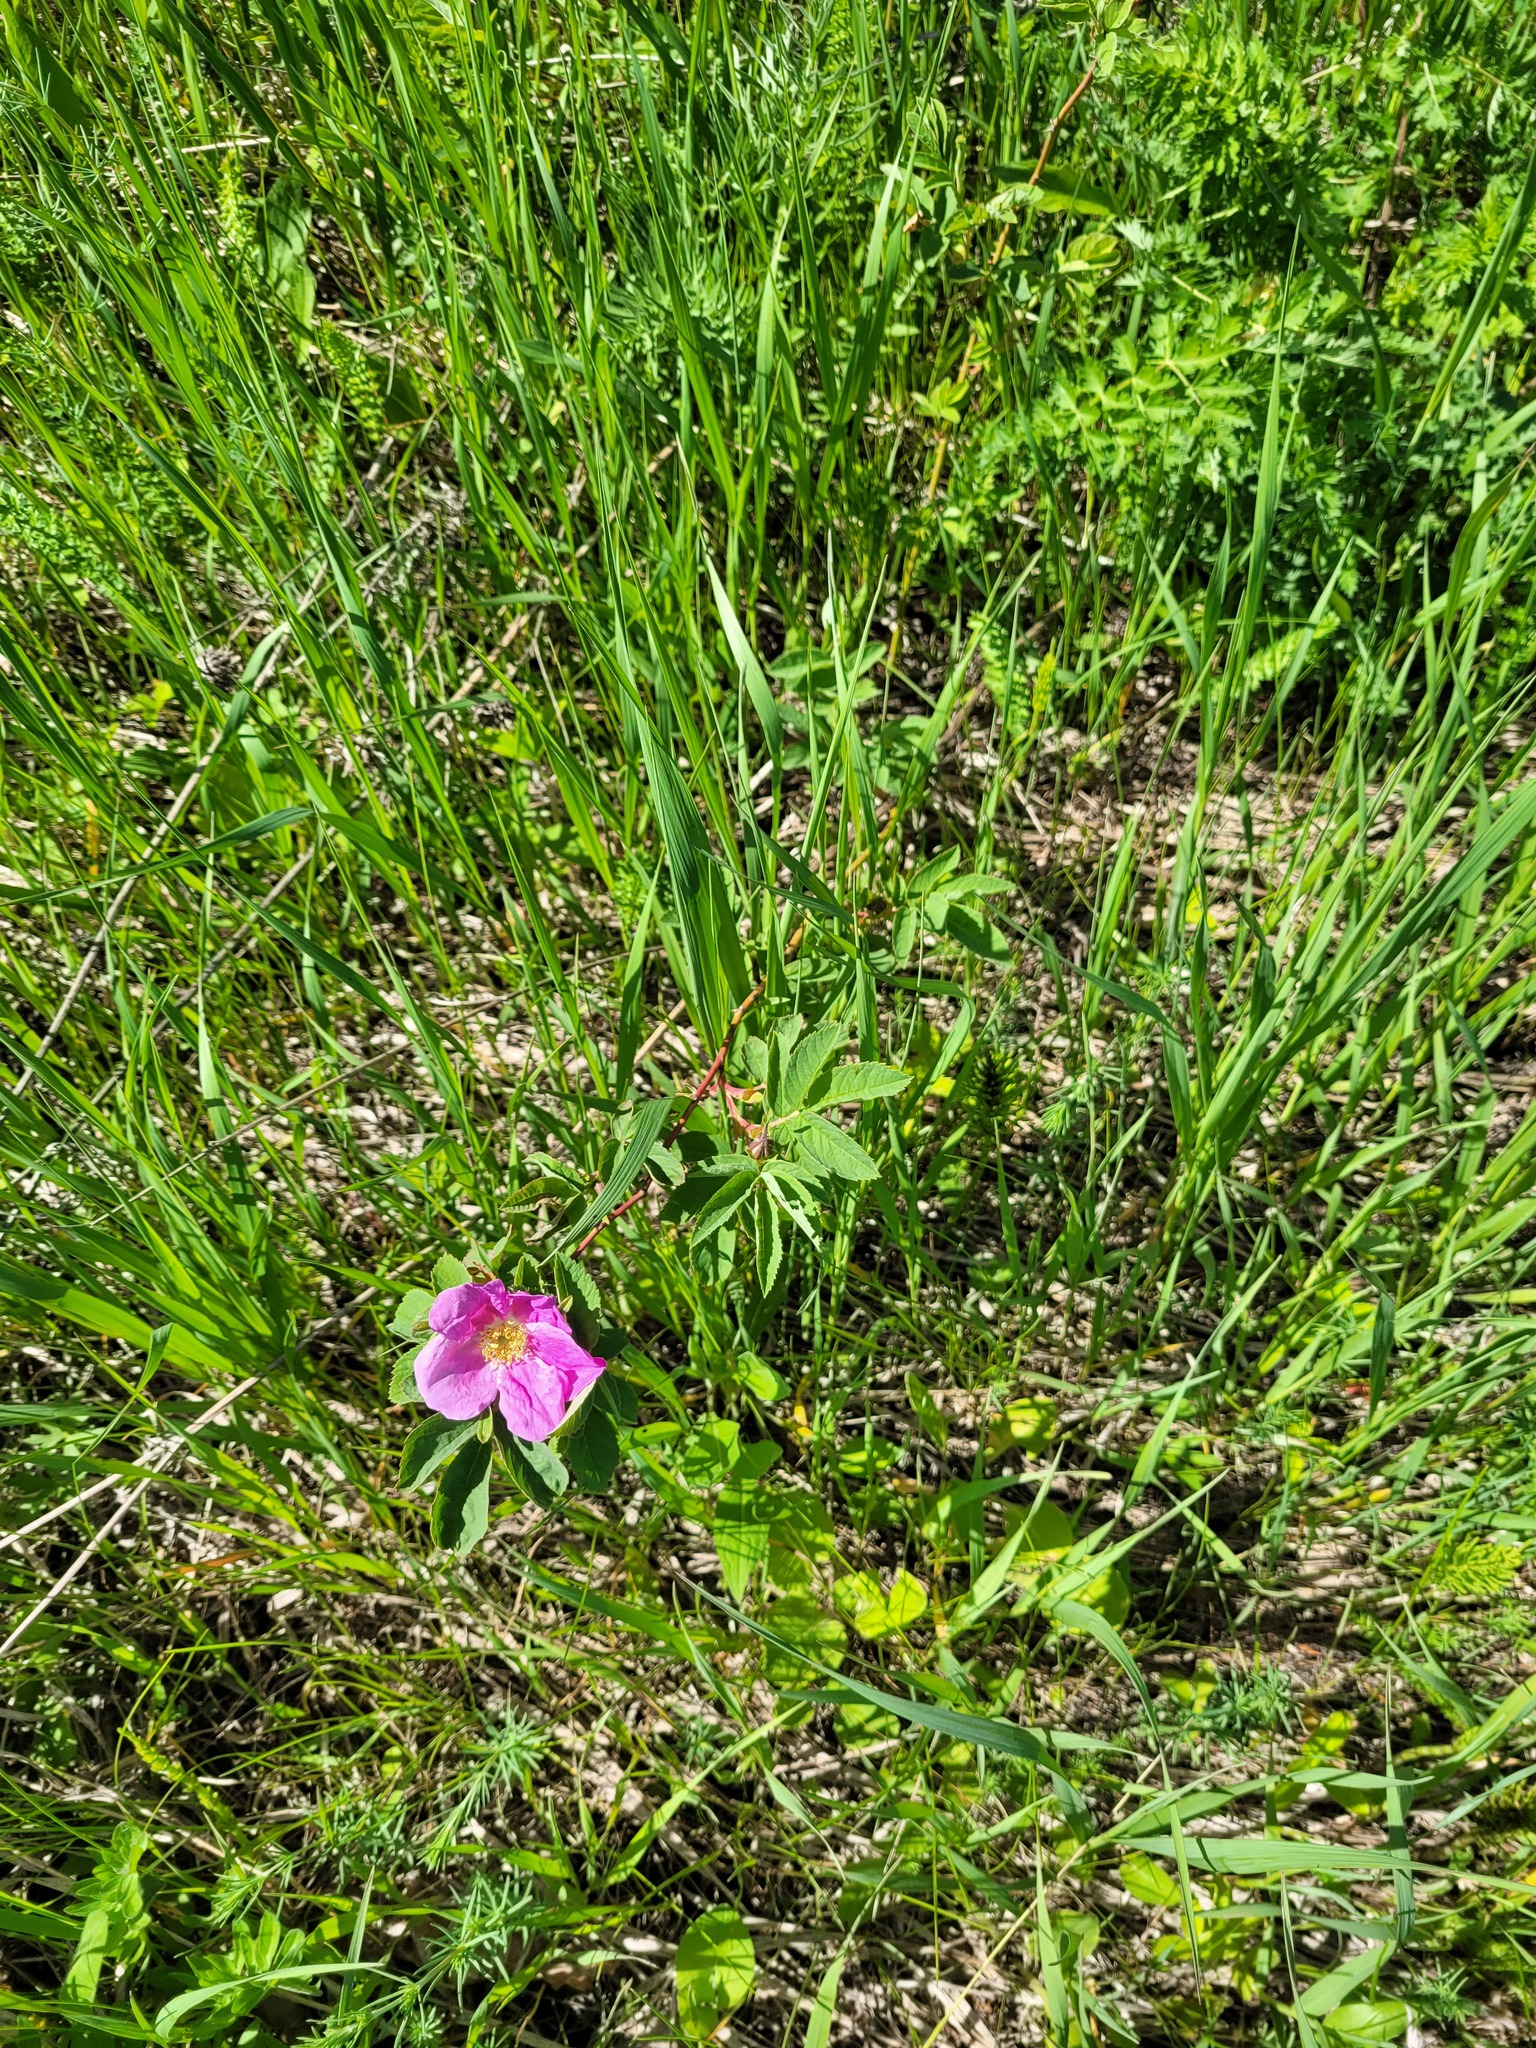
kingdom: Plantae
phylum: Tracheophyta
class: Magnoliopsida
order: Rosales
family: Rosaceae
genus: Rosa
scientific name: Rosa majalis
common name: Cinnamon rose
